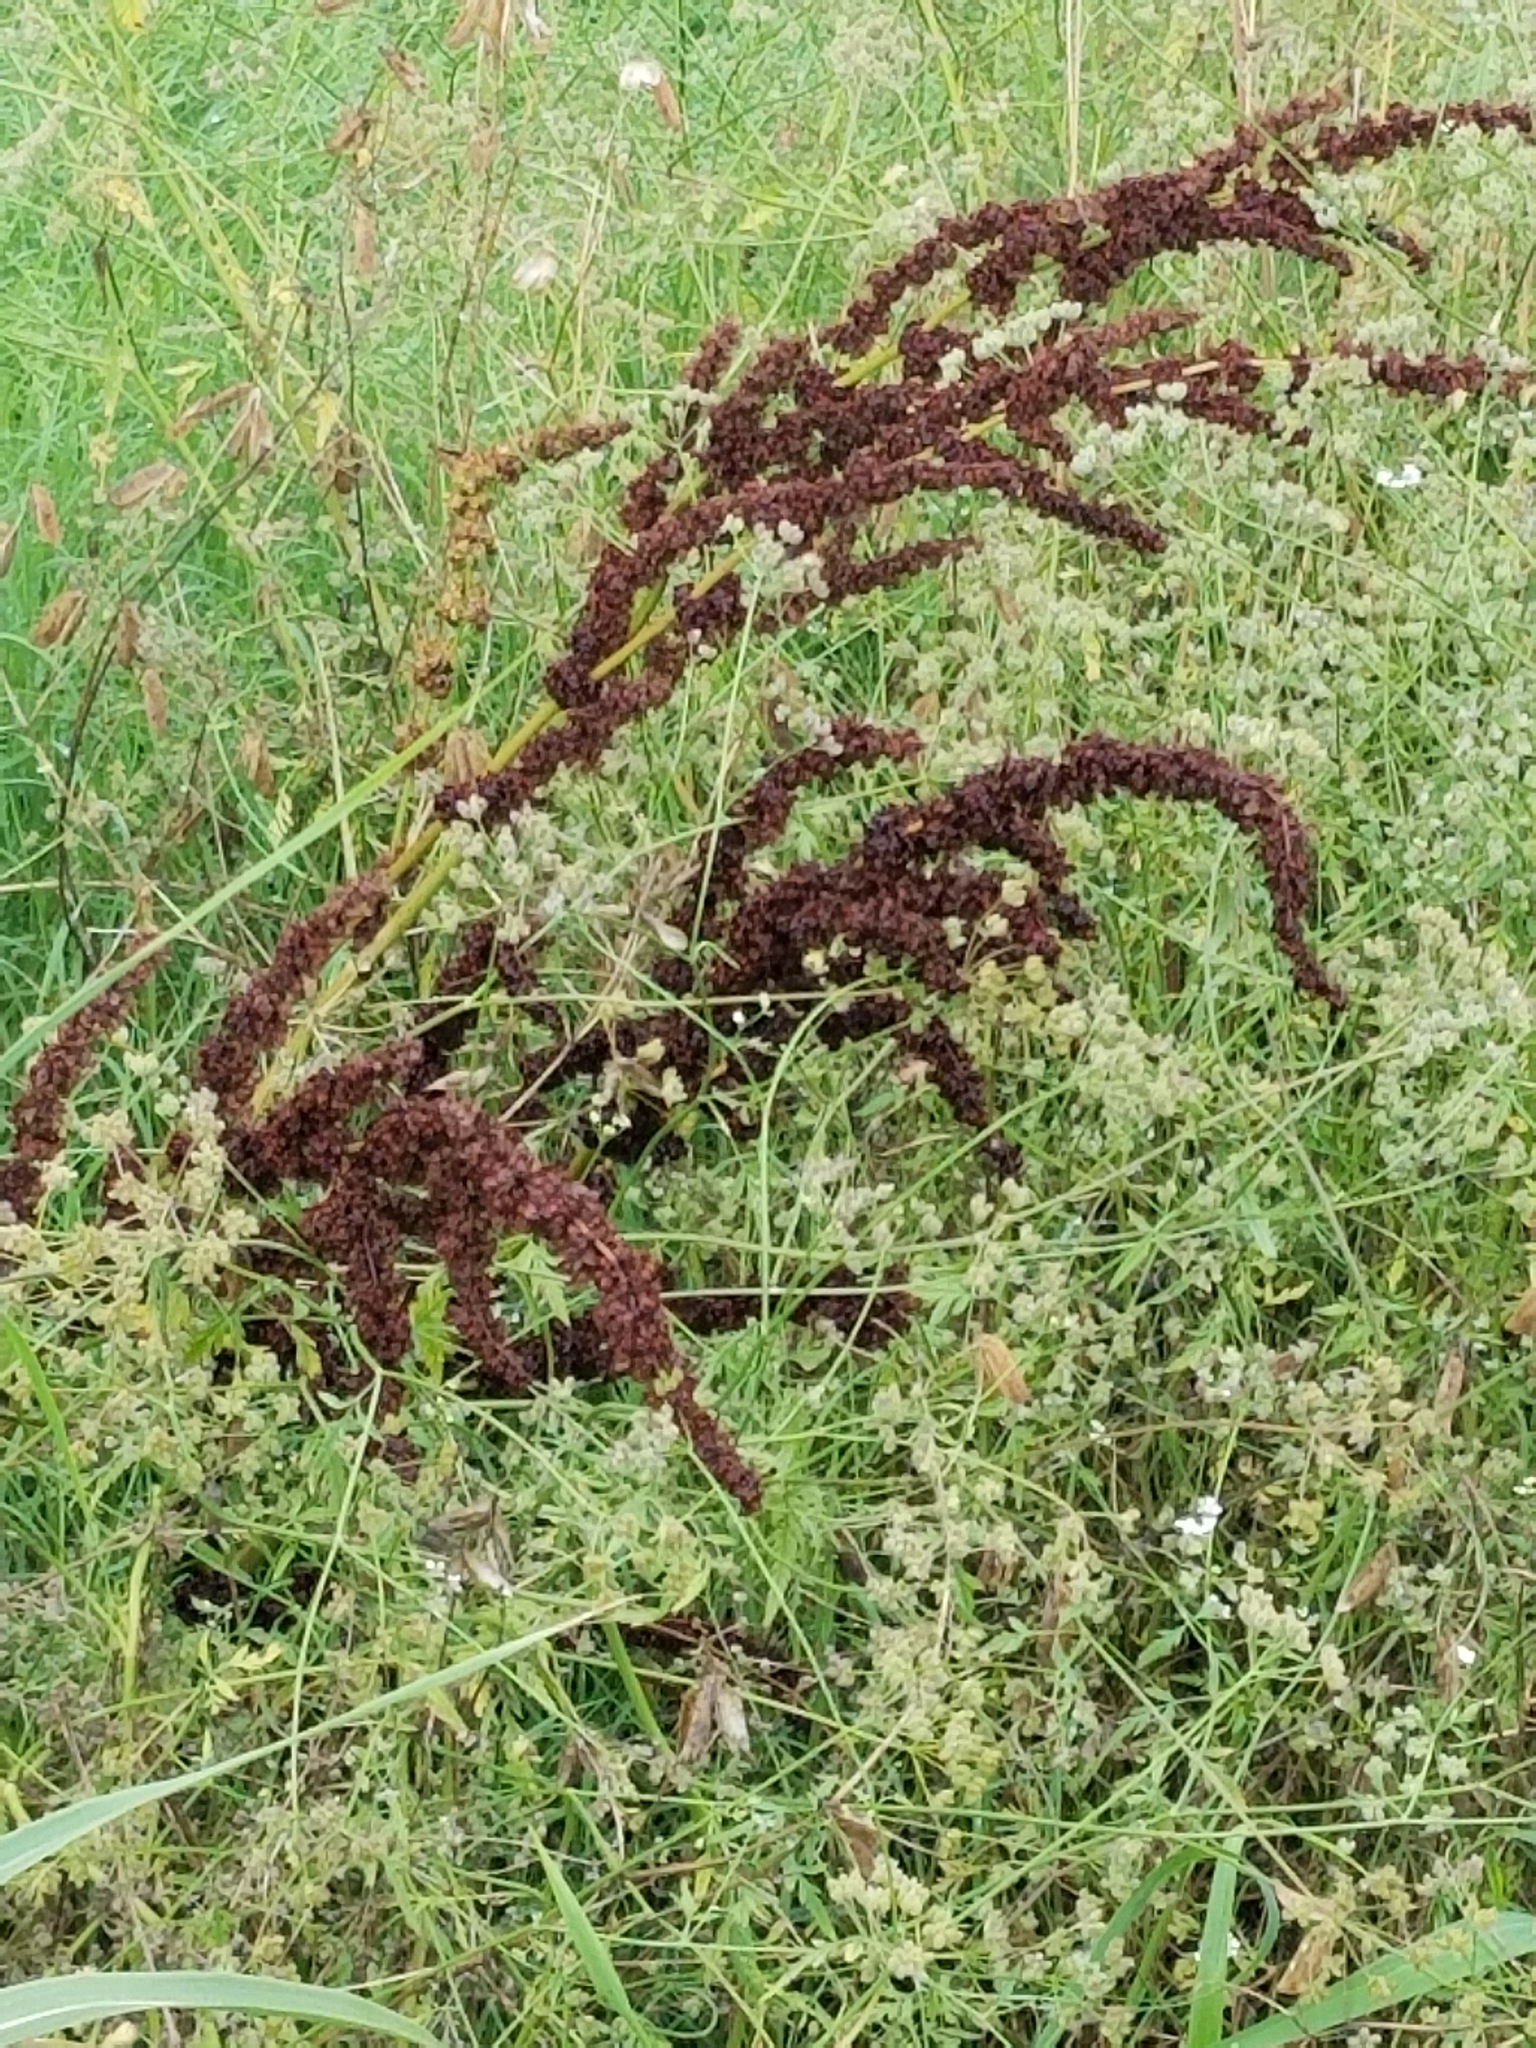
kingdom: Plantae
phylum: Tracheophyta
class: Magnoliopsida
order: Caryophyllales
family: Polygonaceae
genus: Rumex
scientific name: Rumex crispus
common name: Curled dock
